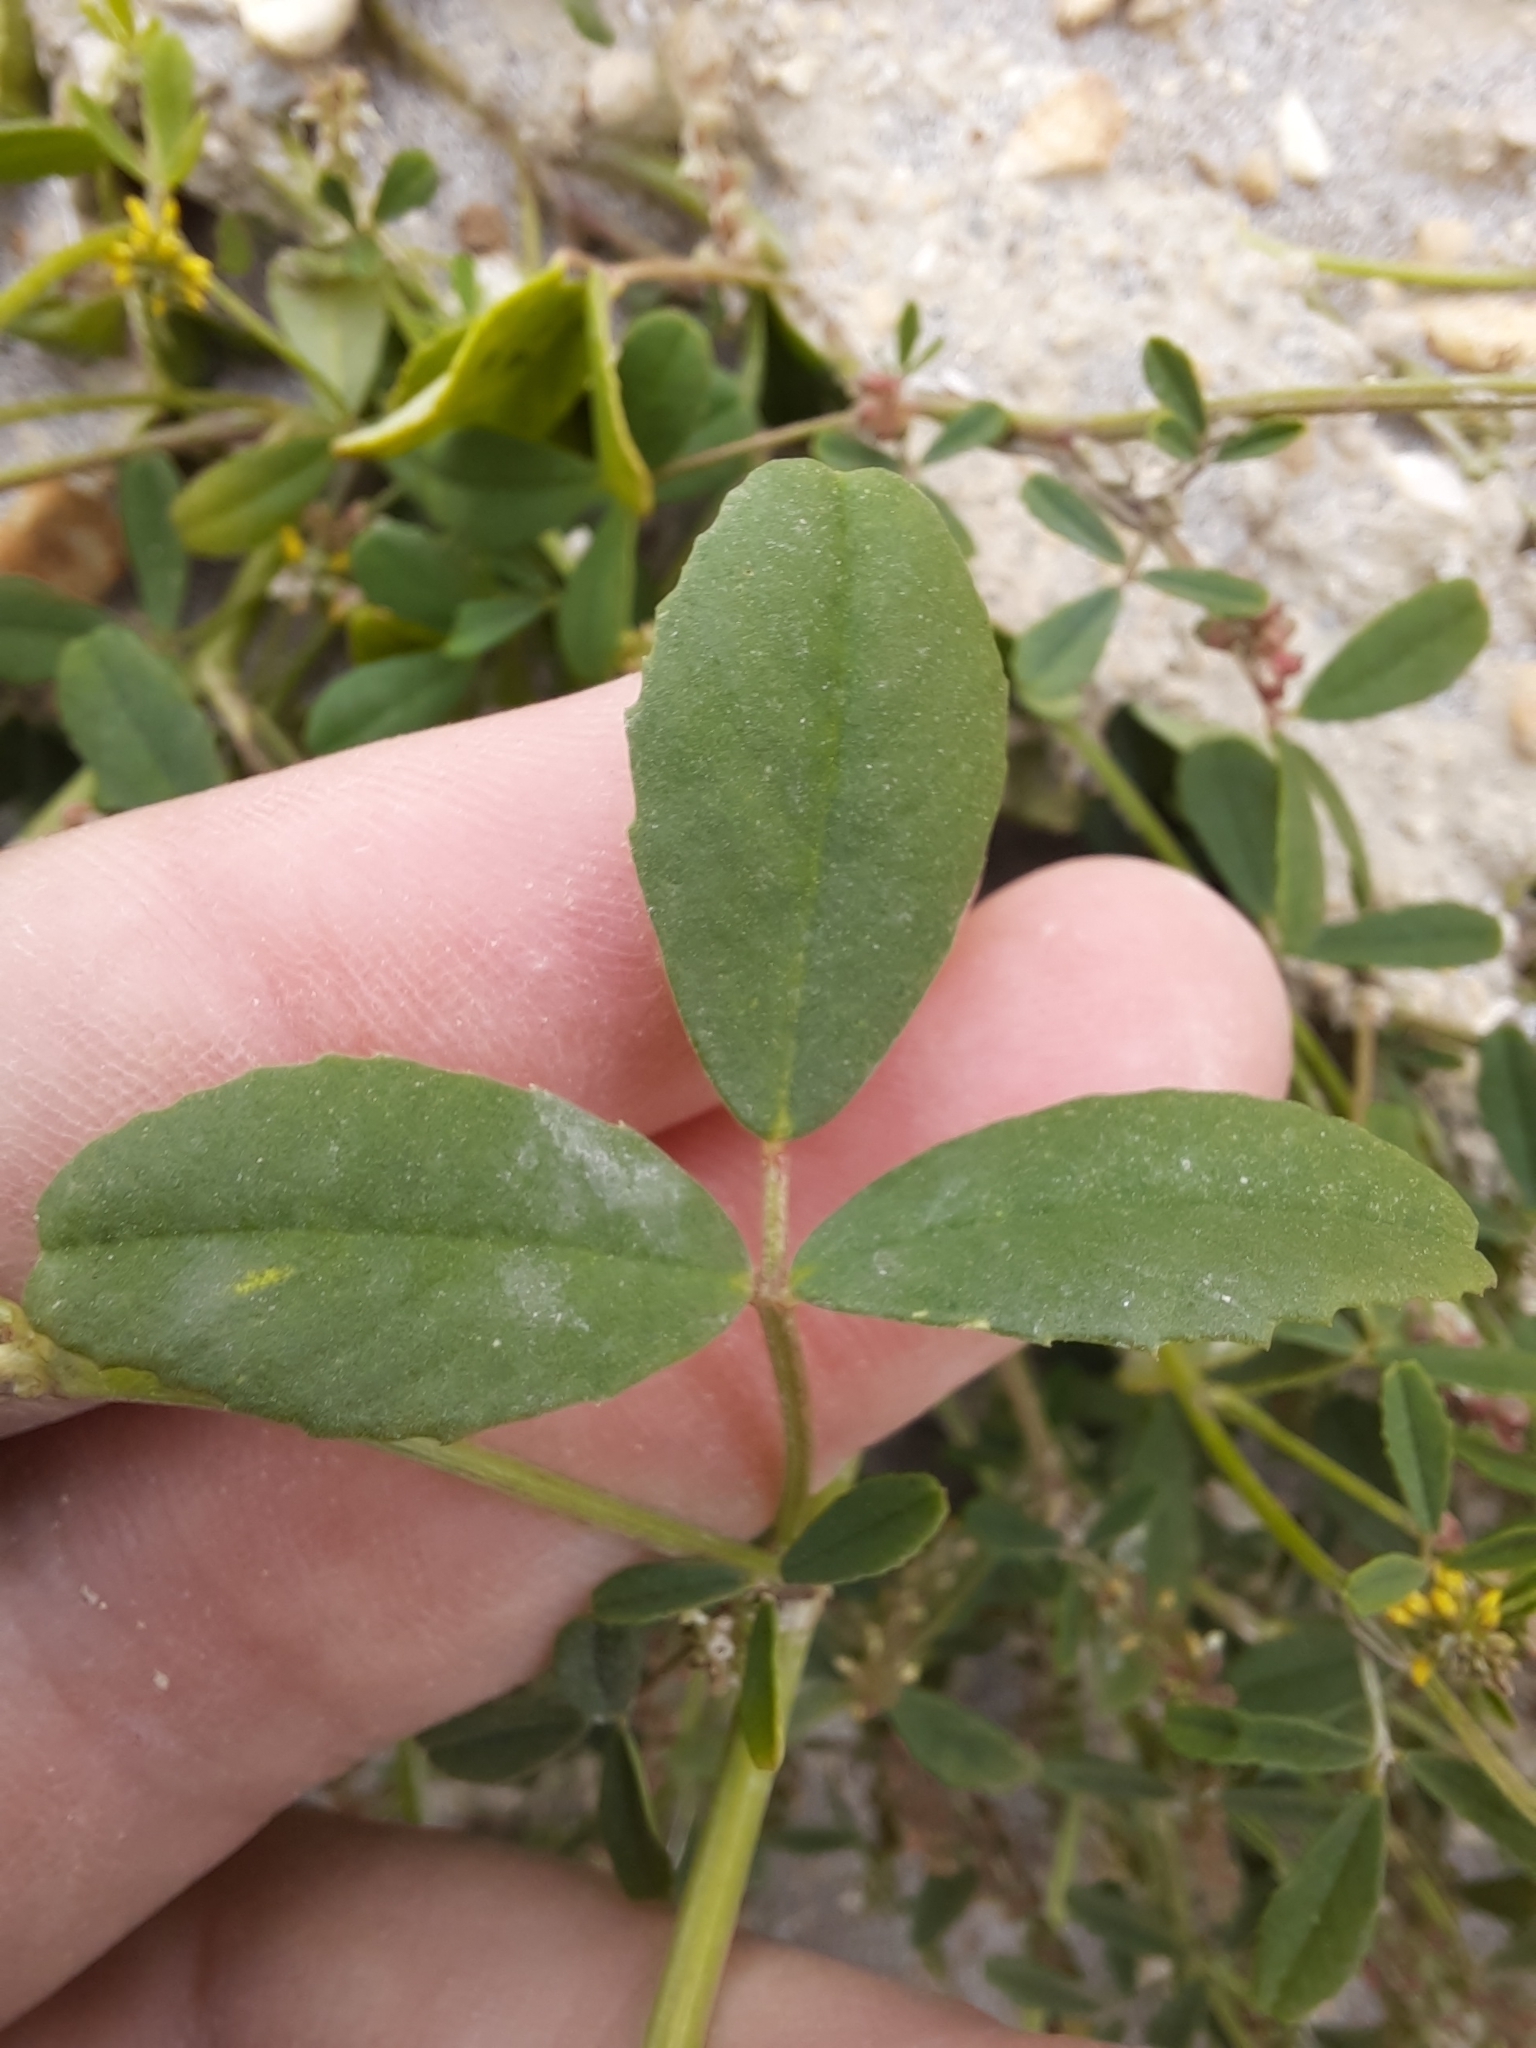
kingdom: Plantae
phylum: Tracheophyta
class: Magnoliopsida
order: Fabales
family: Fabaceae
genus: Melilotus
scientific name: Melilotus indicus
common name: Small melilot
